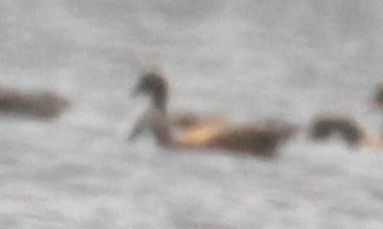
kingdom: Animalia
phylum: Chordata
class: Aves
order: Anseriformes
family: Anatidae
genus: Tadorna
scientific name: Tadorna ferruginea
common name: Ruddy shelduck
